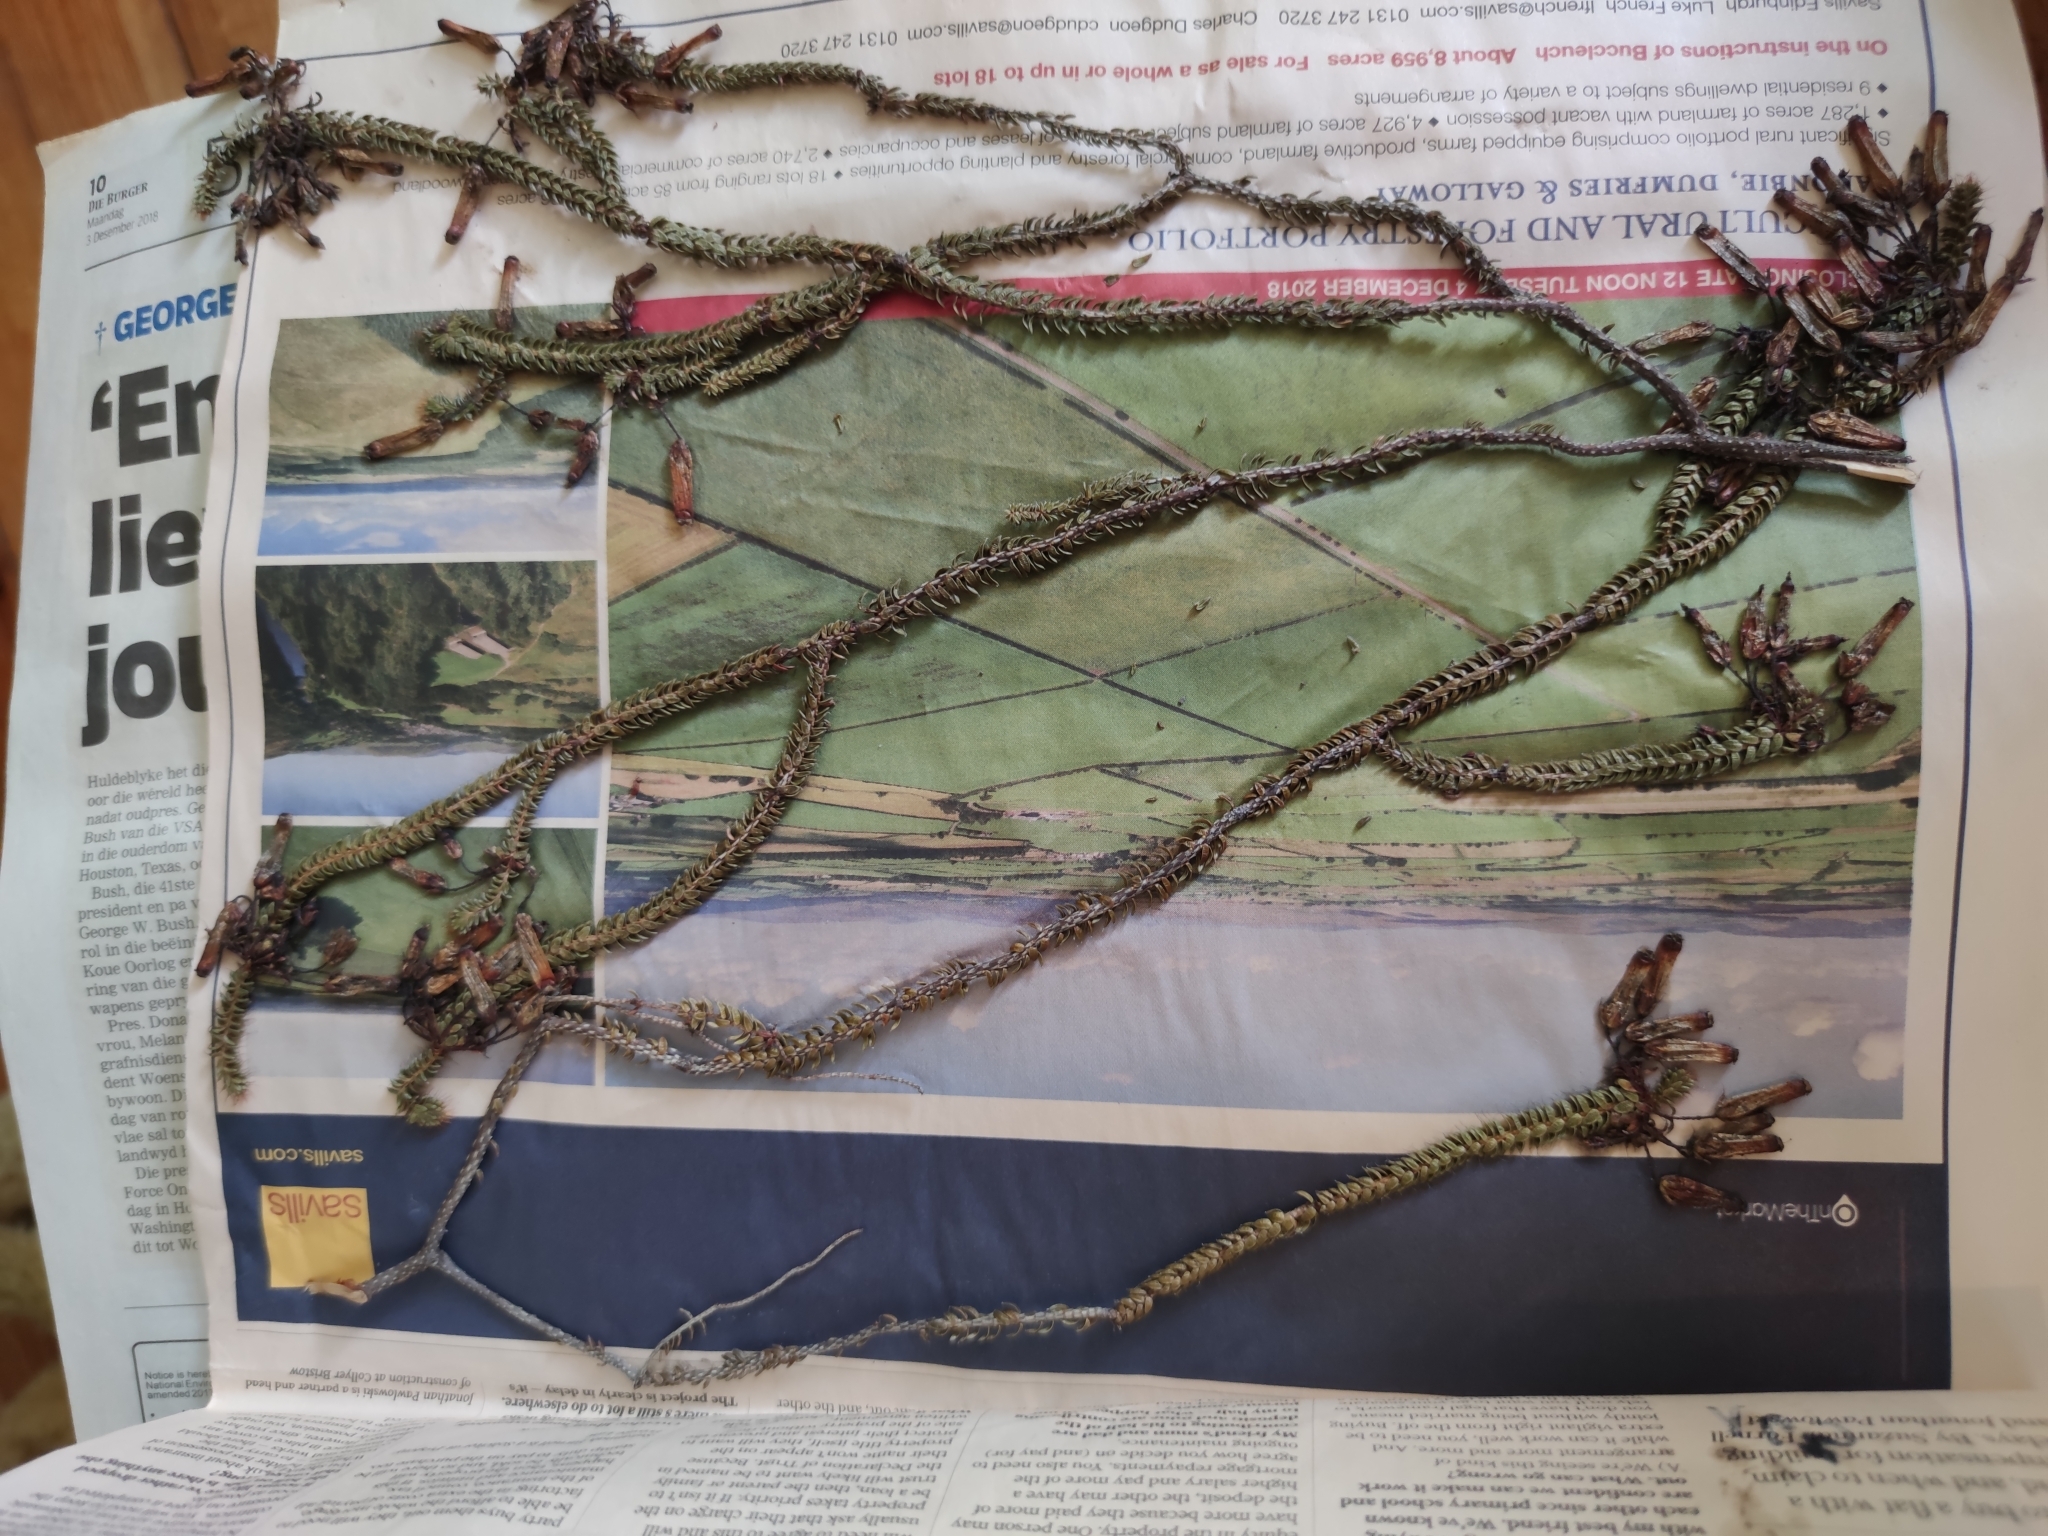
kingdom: Plantae
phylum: Tracheophyta
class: Magnoliopsida
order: Ericales
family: Ericaceae
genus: Erica
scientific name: Erica retorta
